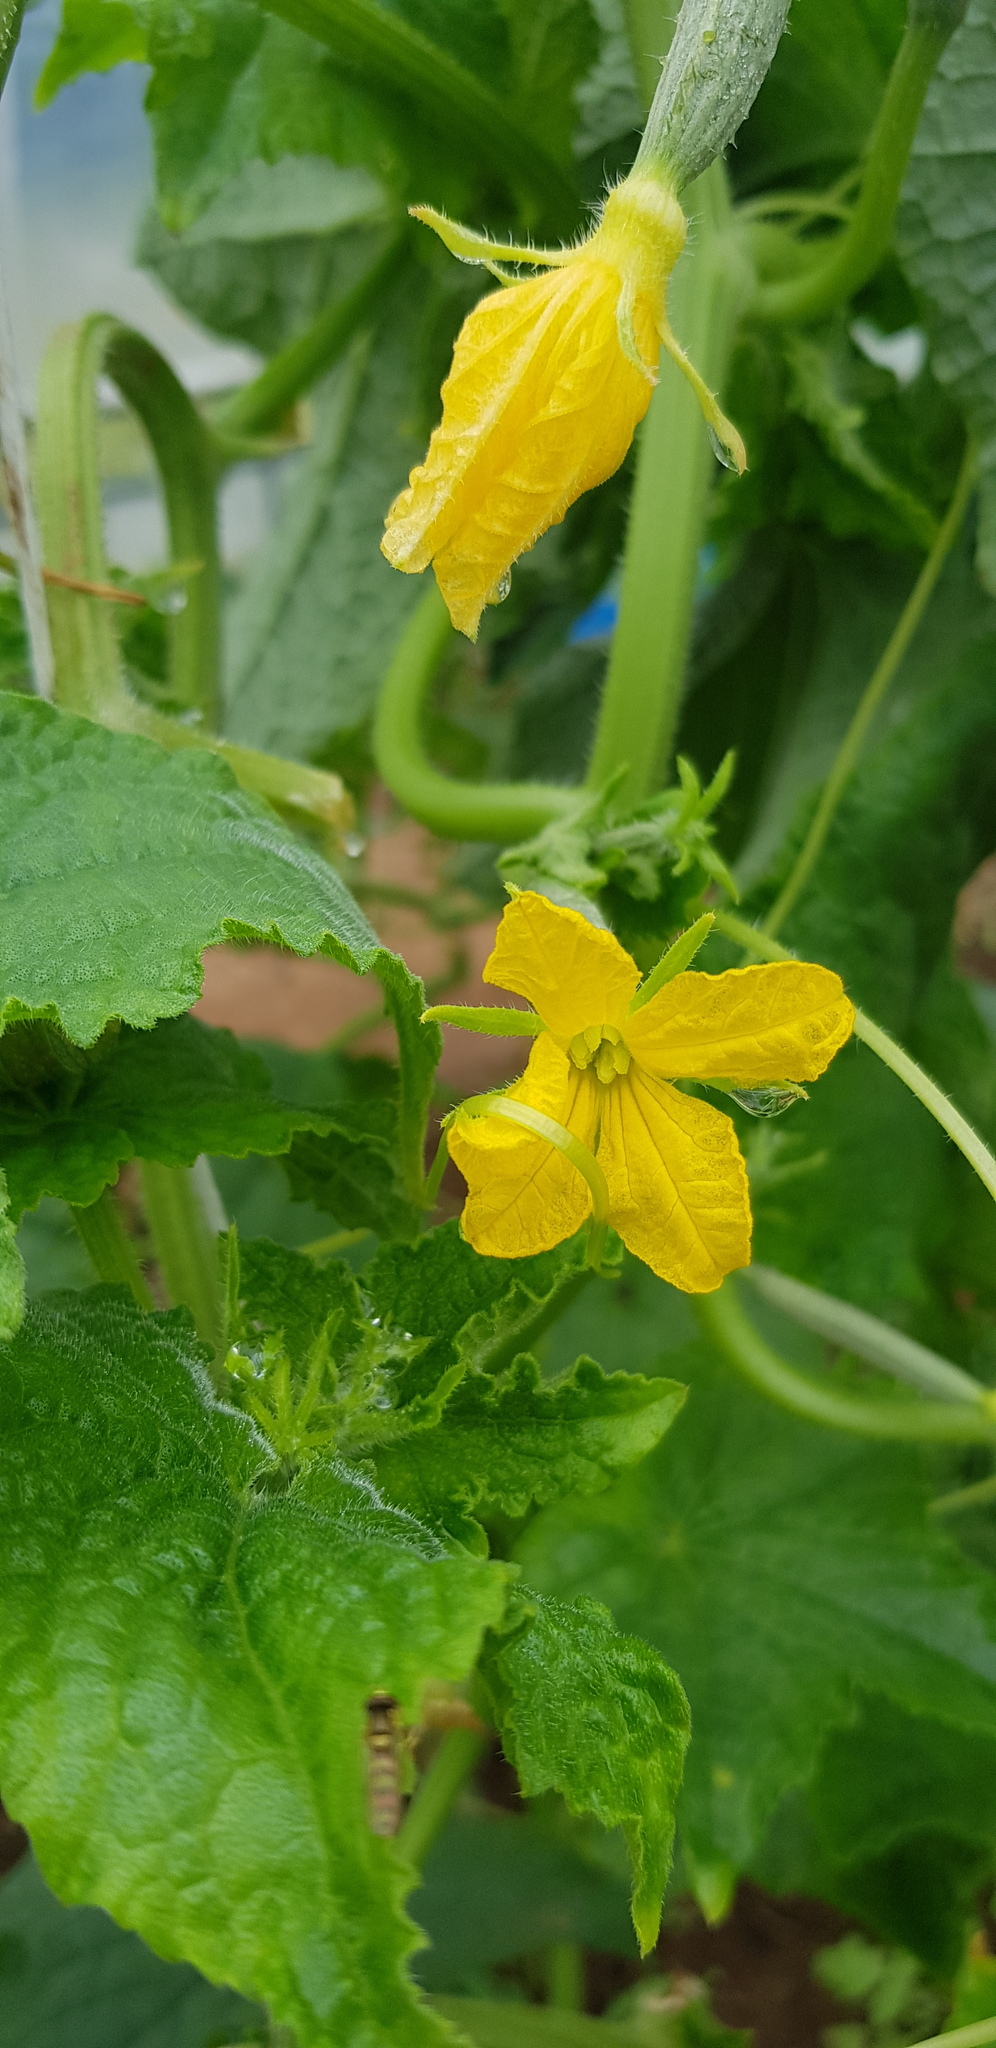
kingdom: Plantae
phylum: Tracheophyta
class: Magnoliopsida
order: Cucurbitales
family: Cucurbitaceae
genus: Cucumis
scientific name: Cucumis sativus
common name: Cucumber
